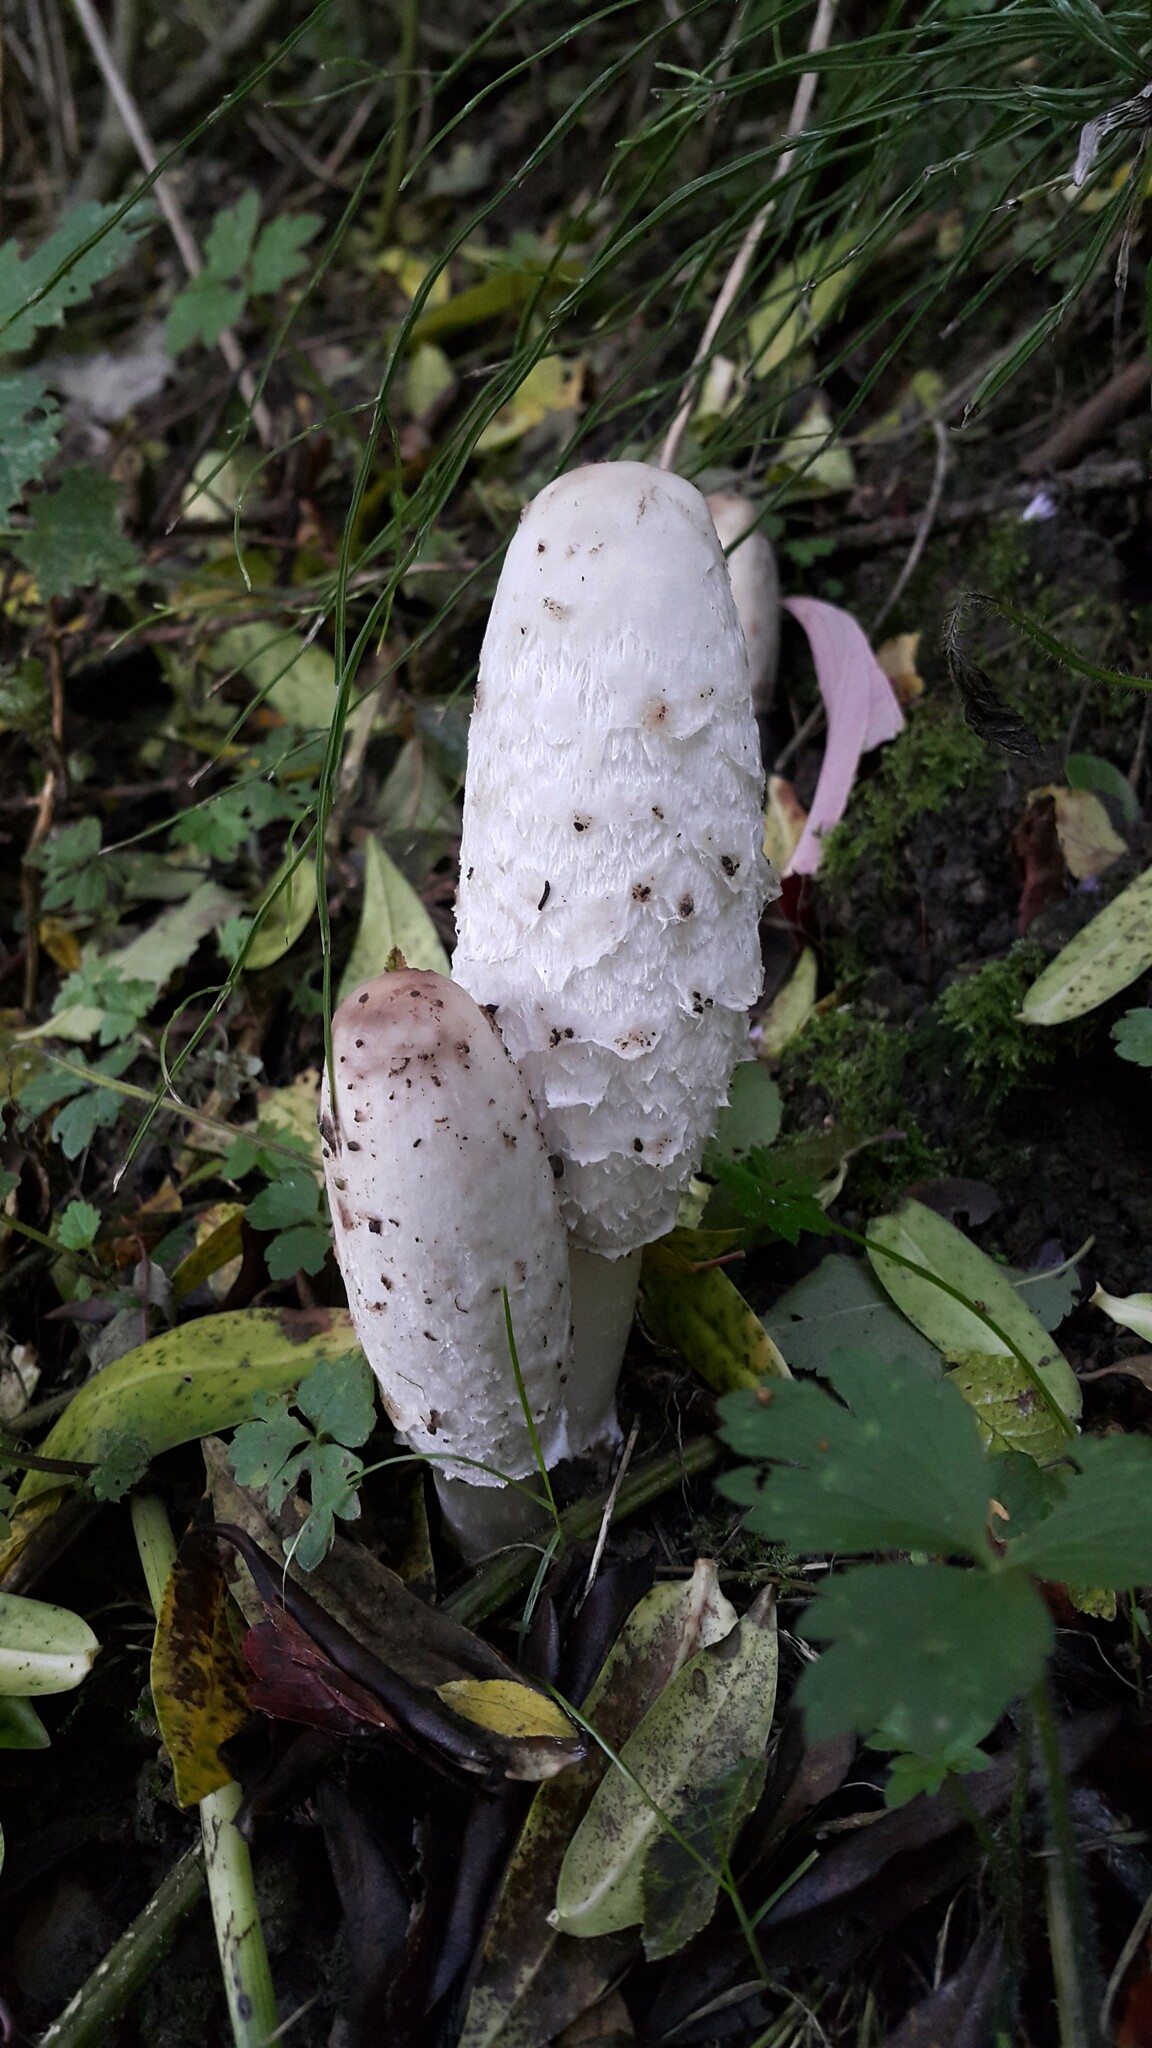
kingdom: Fungi
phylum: Basidiomycota
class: Agaricomycetes
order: Agaricales
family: Agaricaceae
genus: Coprinus
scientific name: Coprinus comatus
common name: Lawyer's wig
